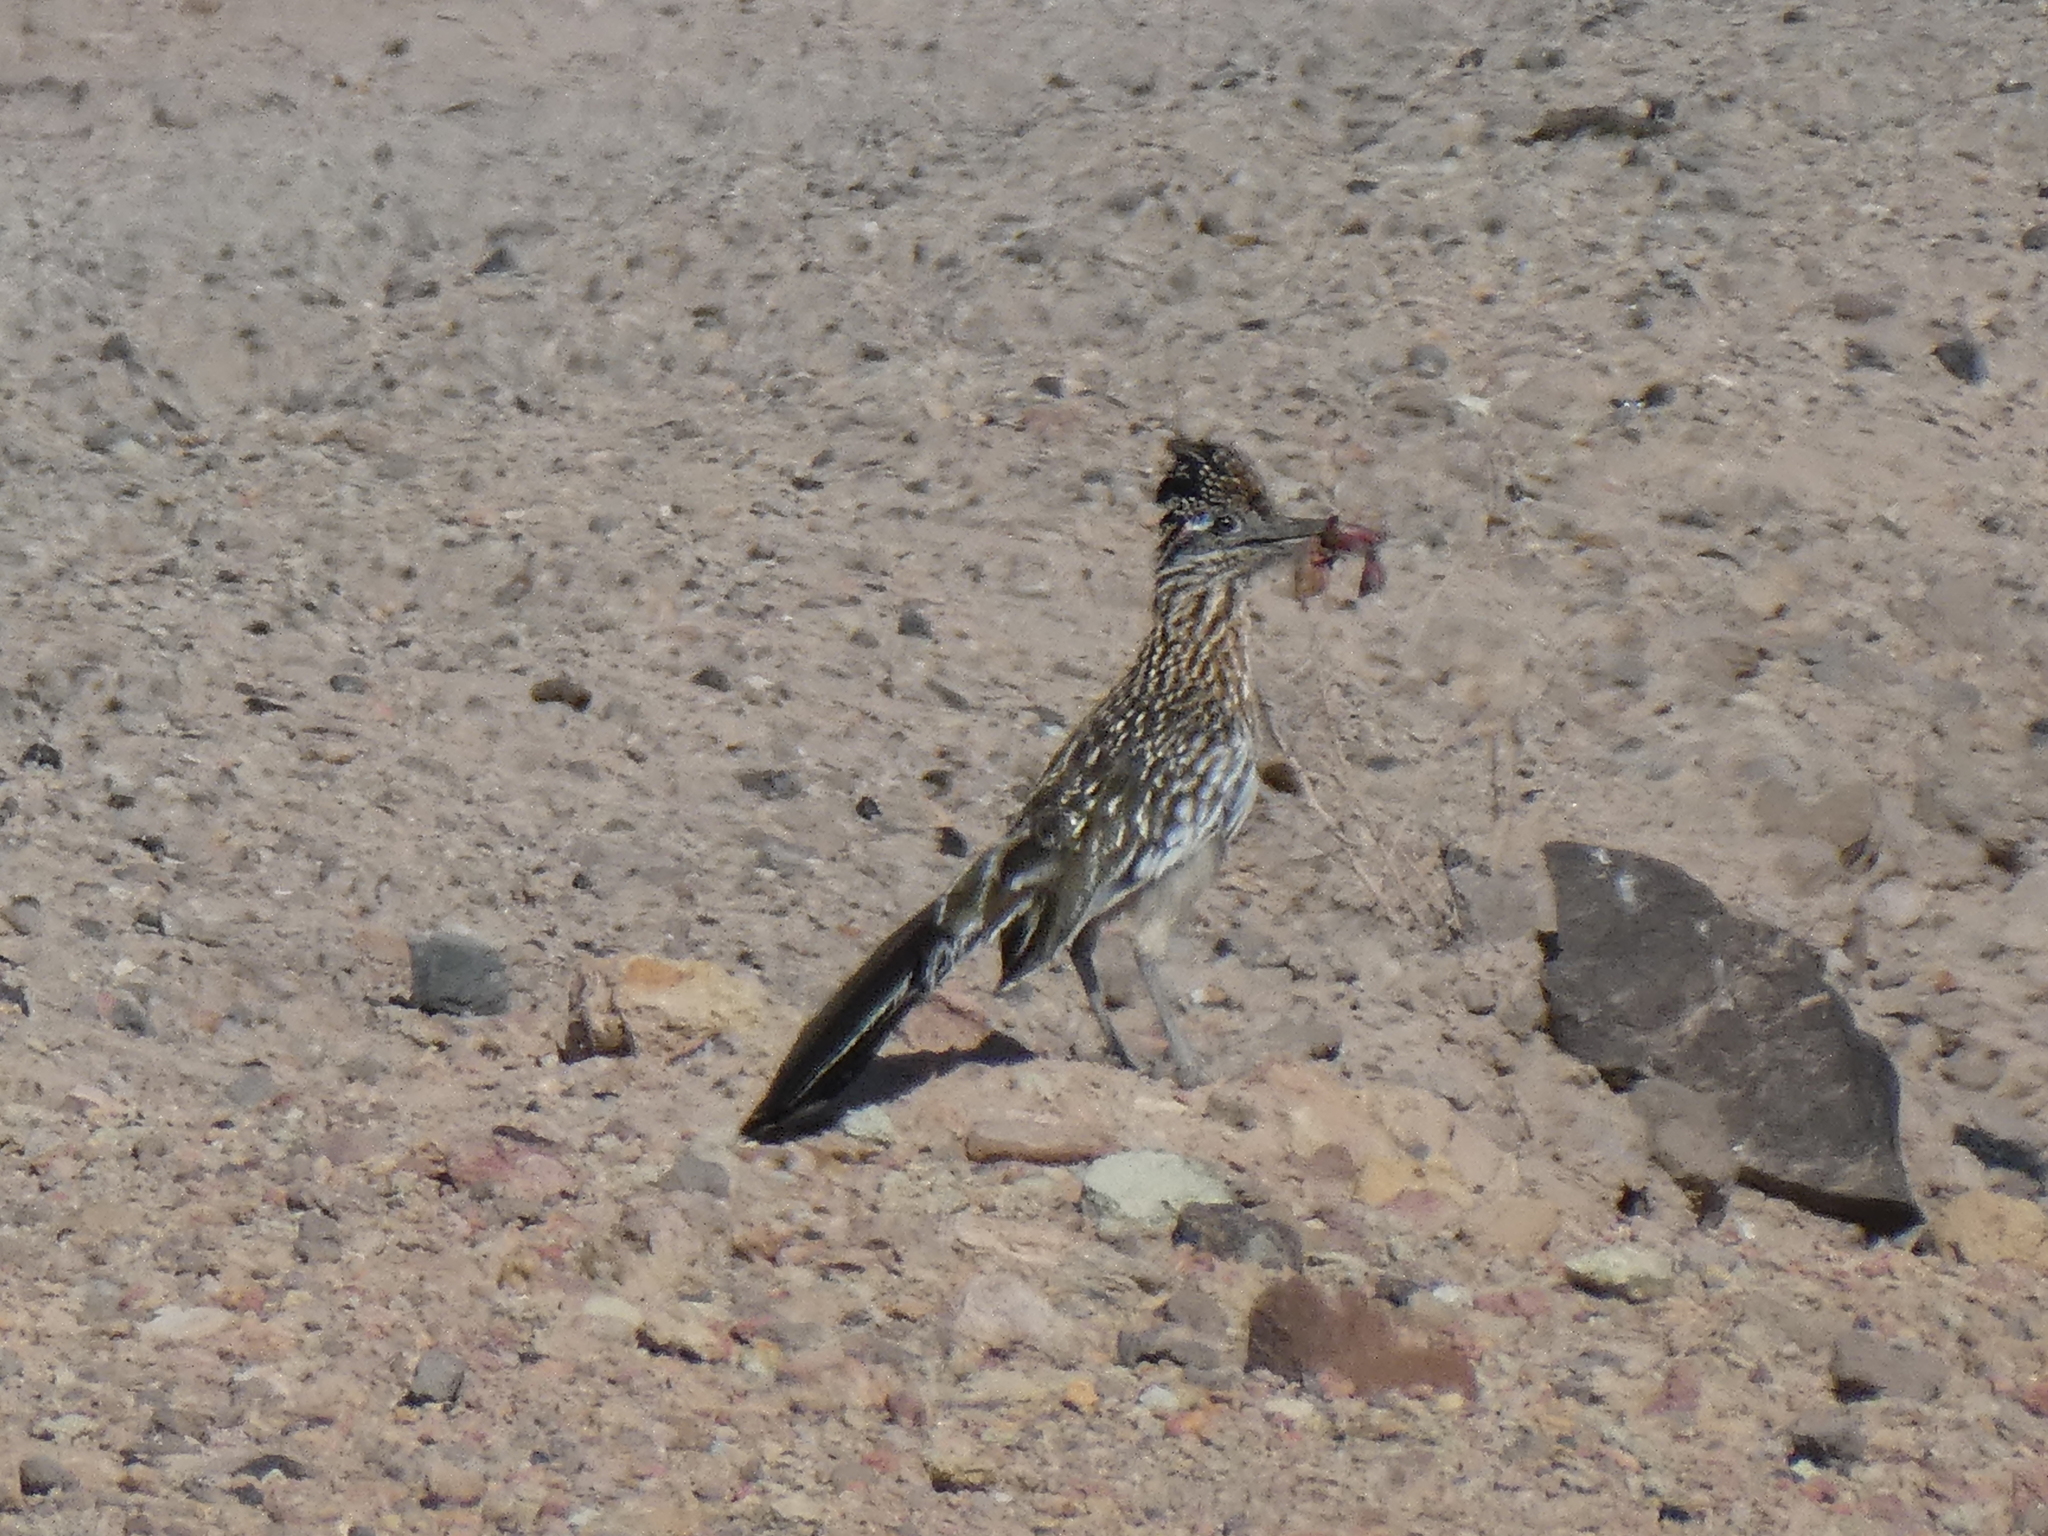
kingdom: Animalia
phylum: Chordata
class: Aves
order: Cuculiformes
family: Cuculidae
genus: Geococcyx
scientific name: Geococcyx californianus
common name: Greater roadrunner
